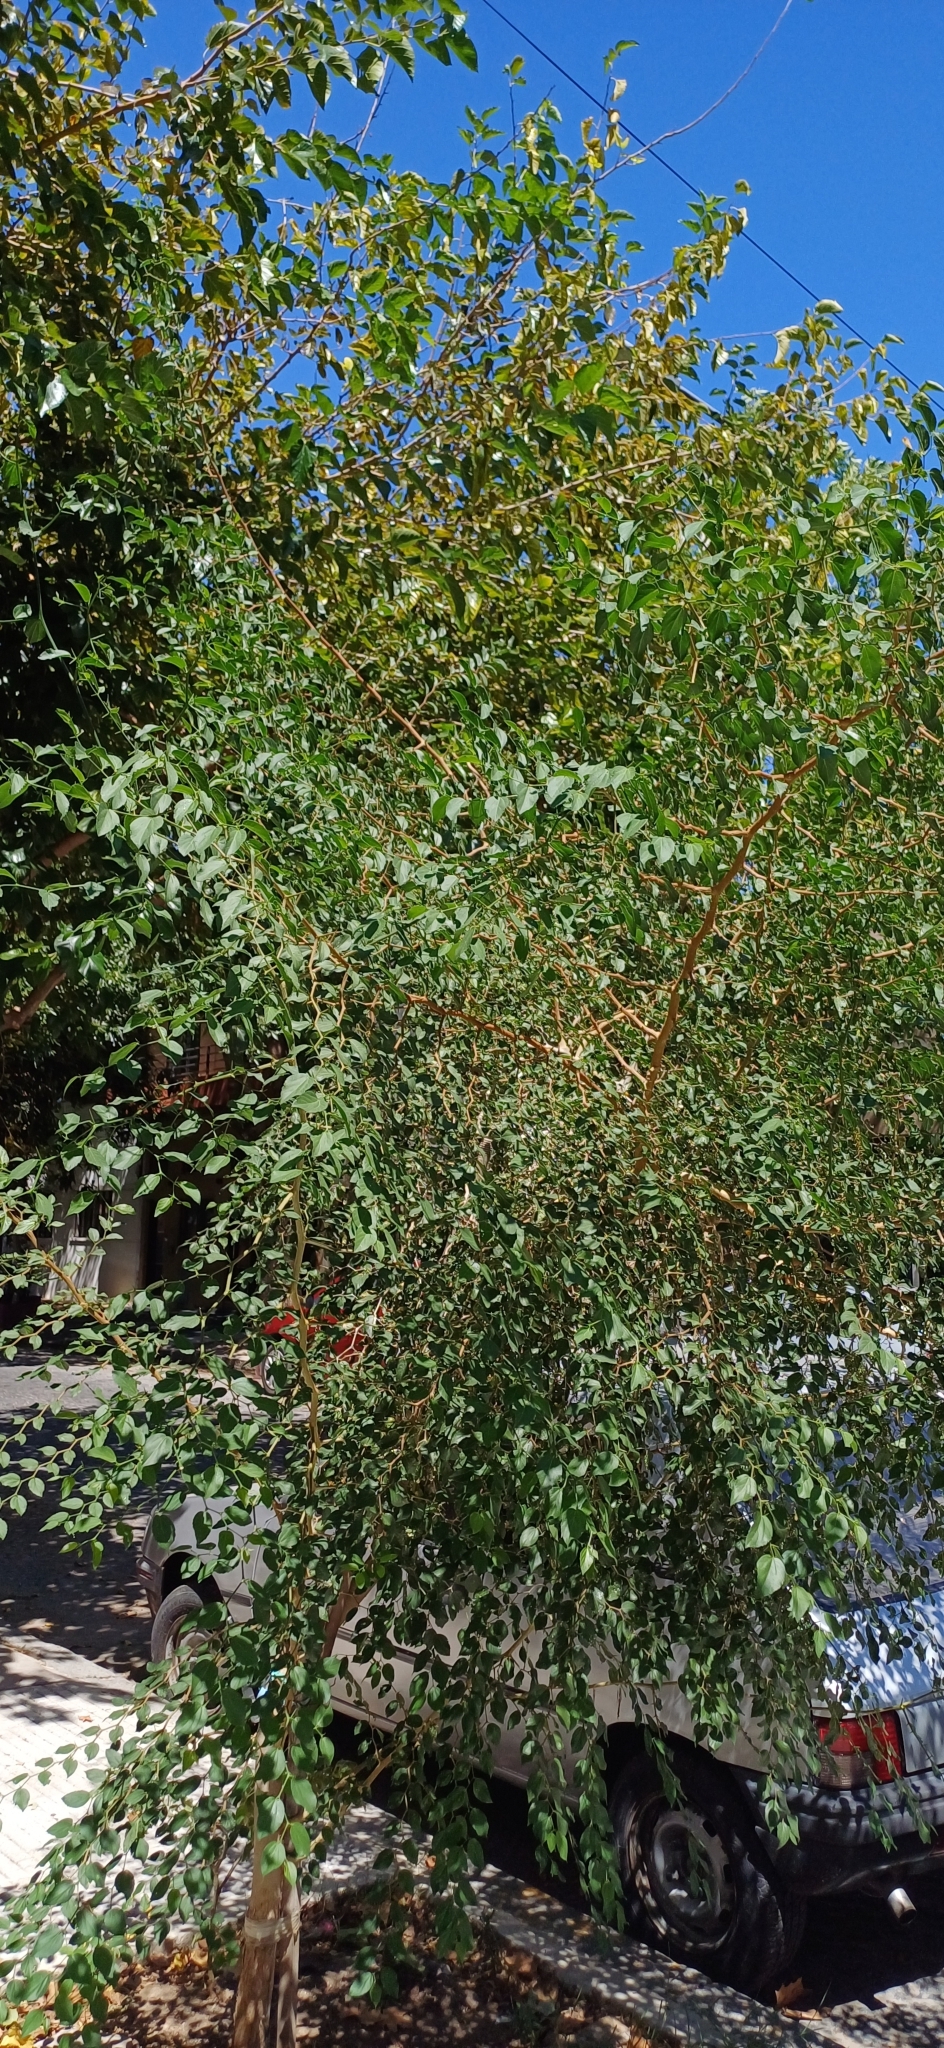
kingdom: Plantae
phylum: Tracheophyta
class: Magnoliopsida
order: Rosales
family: Cannabaceae
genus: Celtis
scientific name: Celtis tala
